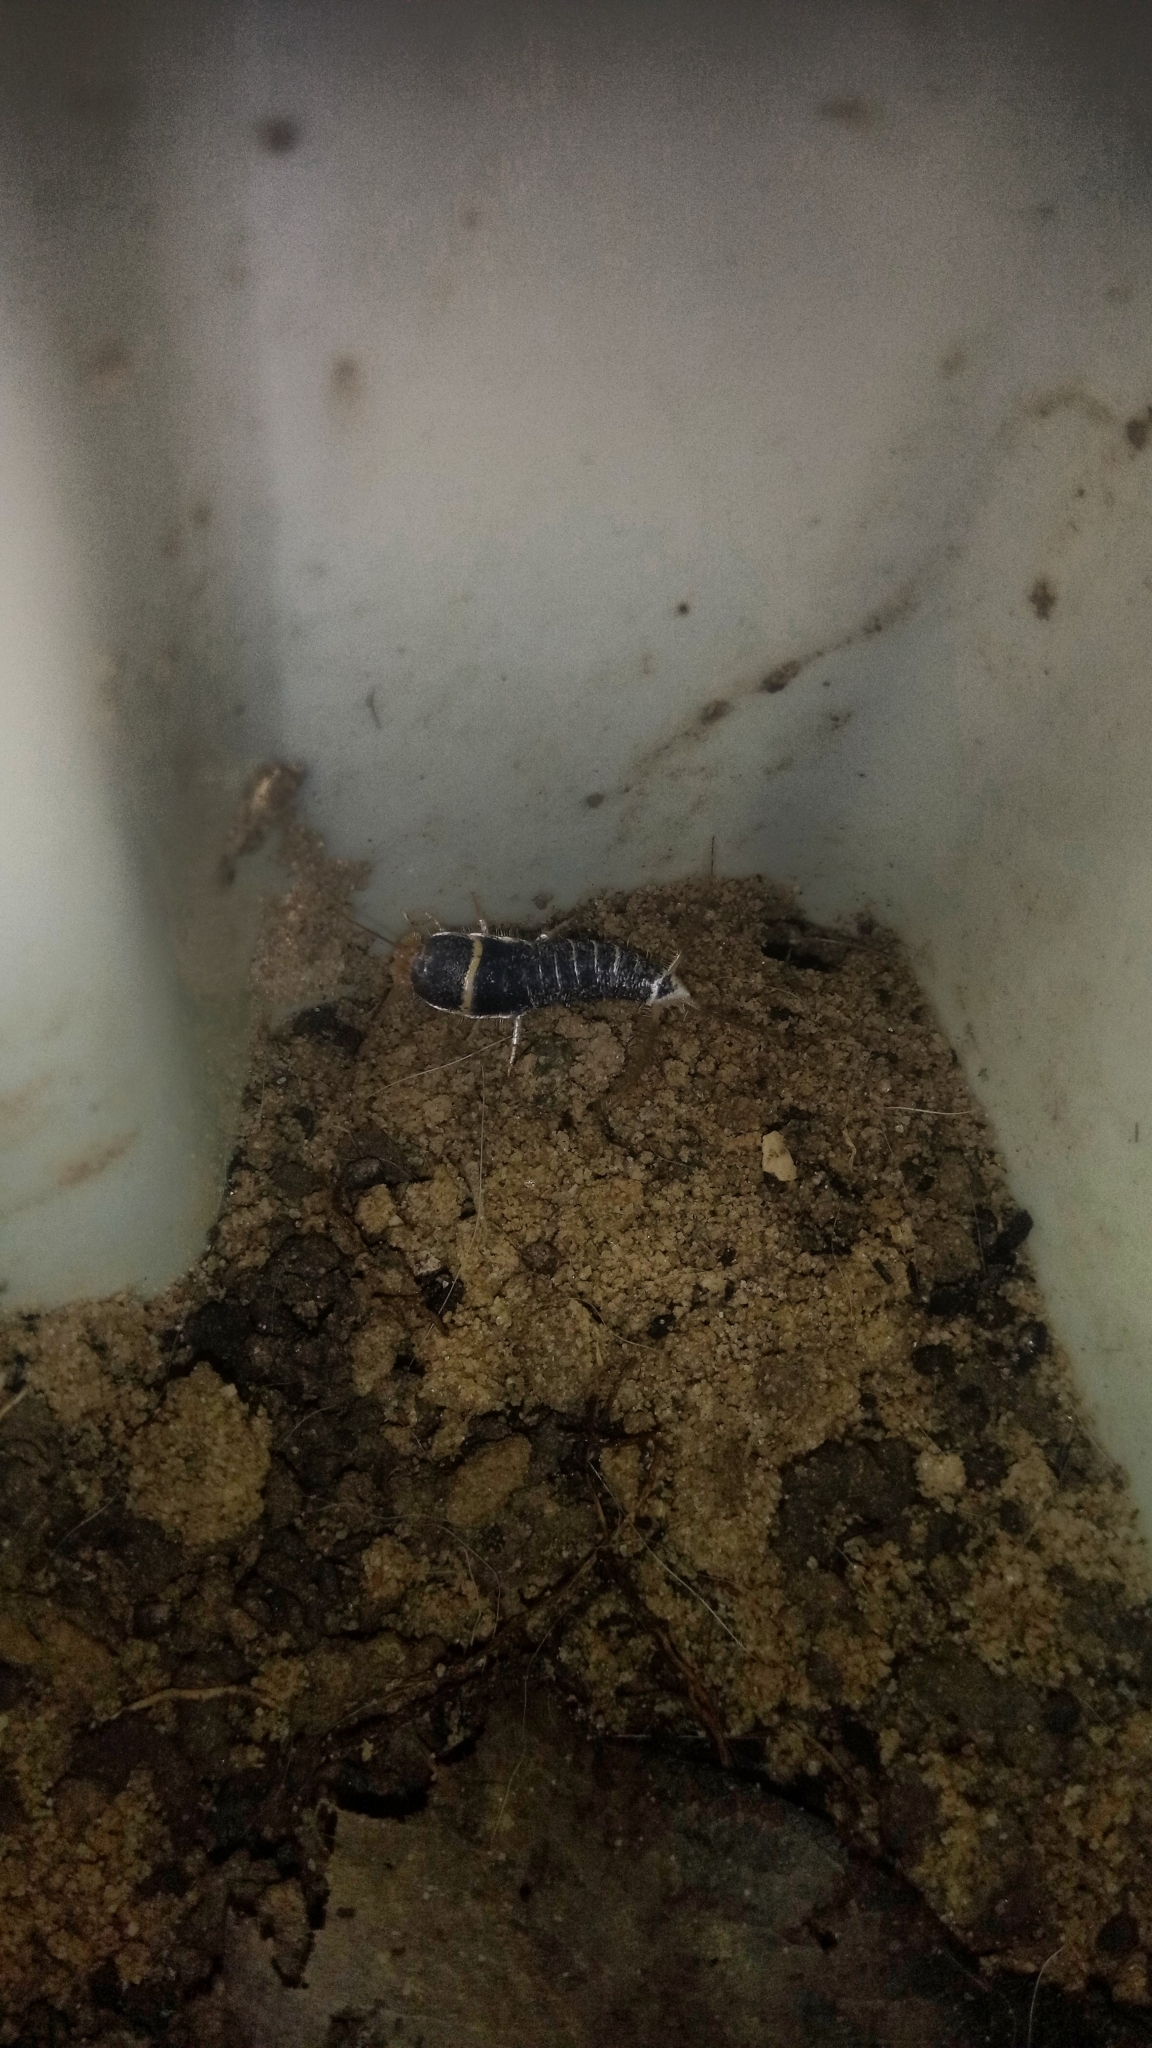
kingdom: Animalia
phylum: Arthropoda
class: Insecta
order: Zygentoma
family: Lepismatidae
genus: Acrotelsa
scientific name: Acrotelsa collaris
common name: Silverfish
